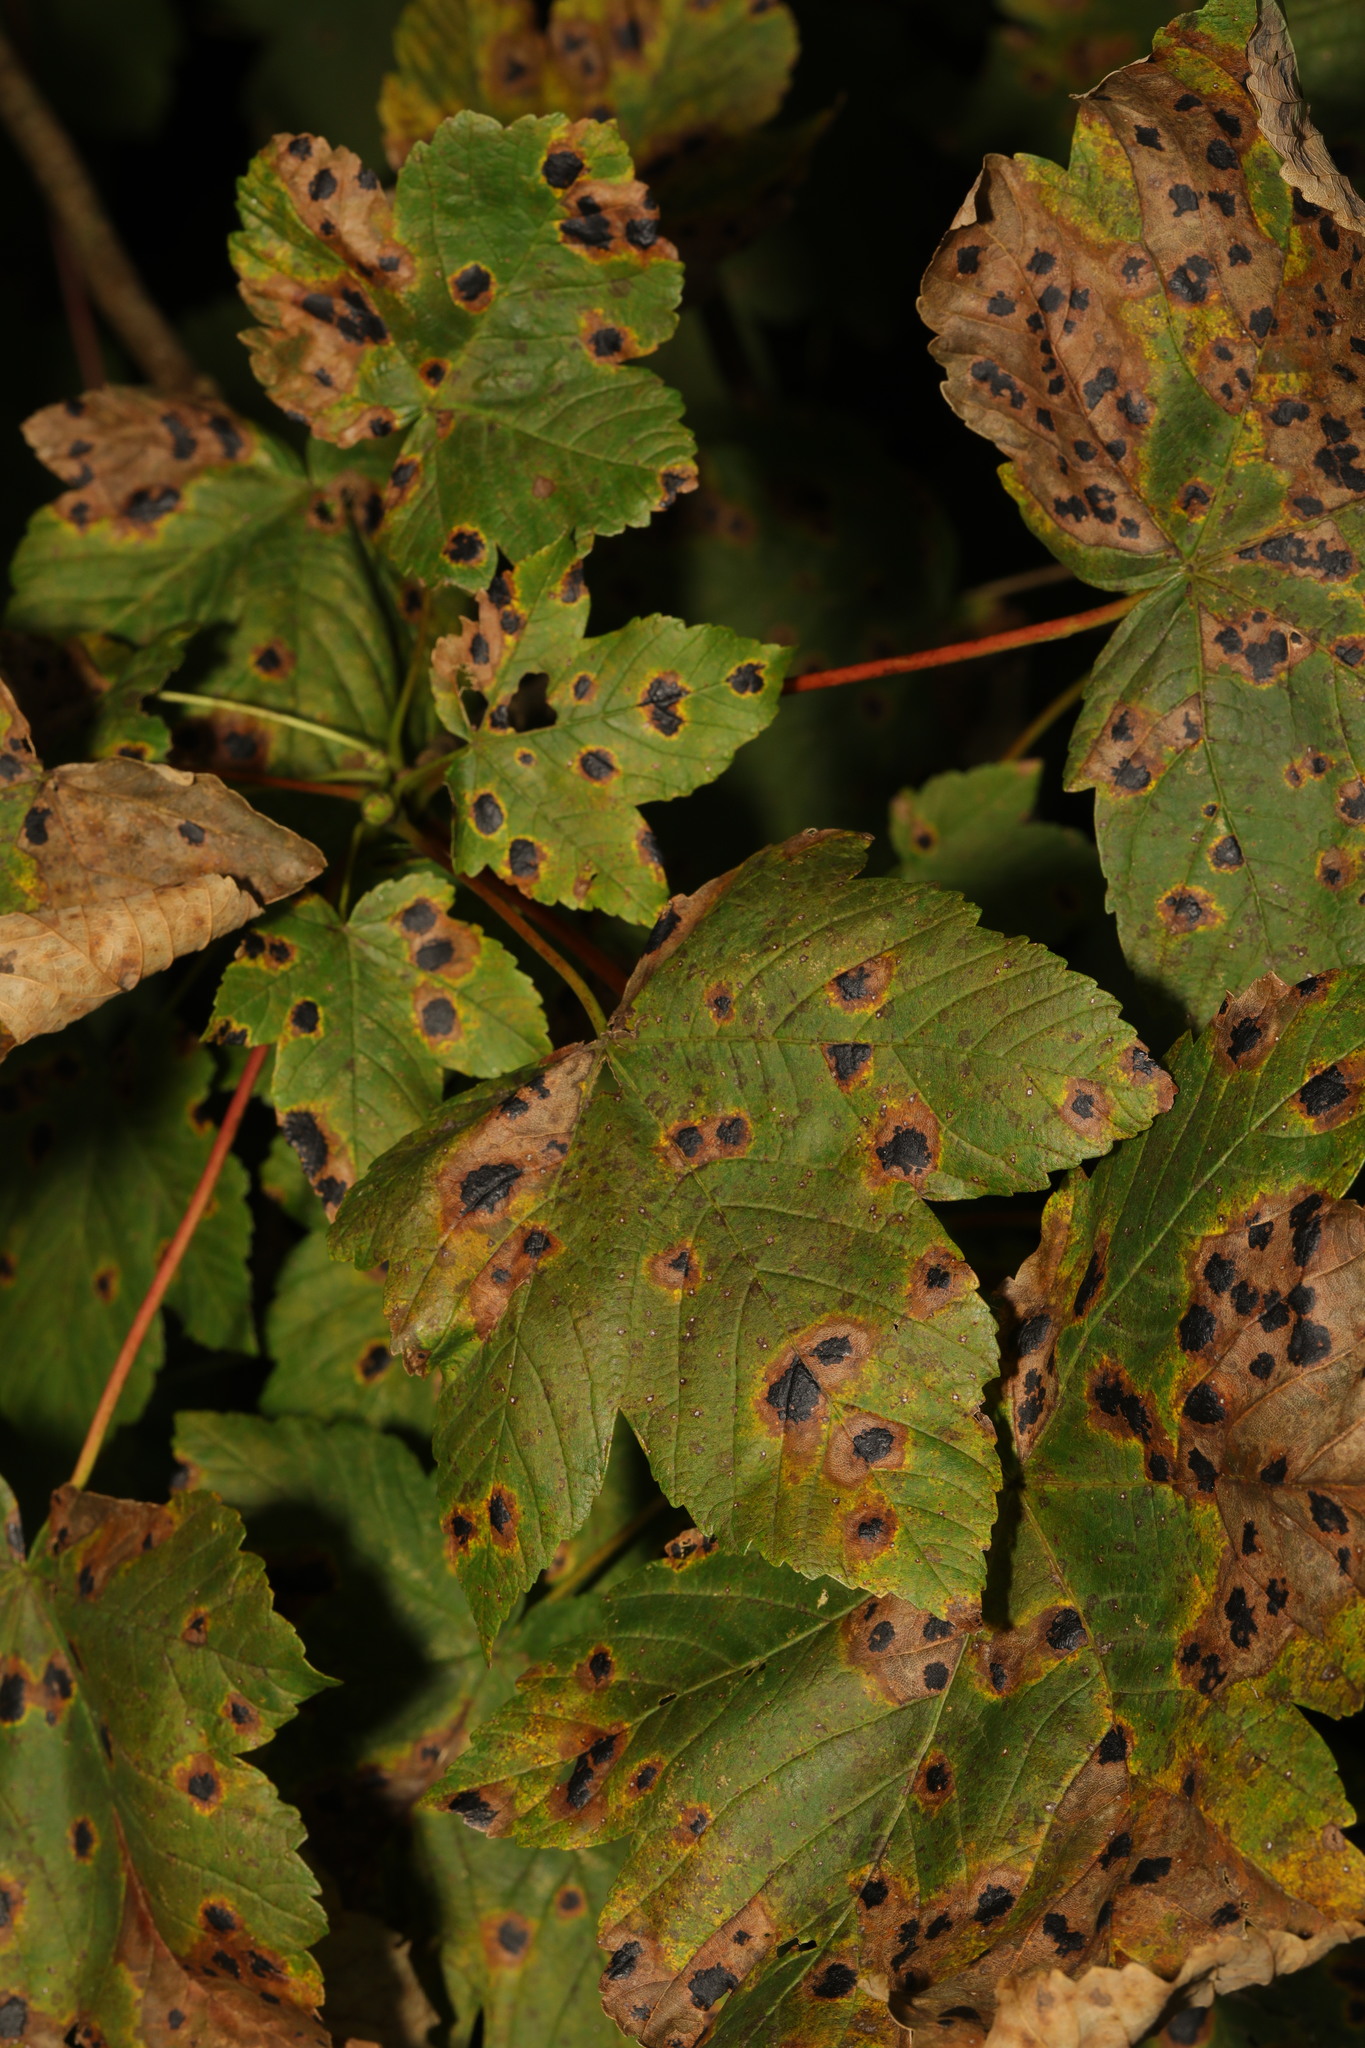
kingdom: Plantae
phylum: Tracheophyta
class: Magnoliopsida
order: Sapindales
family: Sapindaceae
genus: Acer
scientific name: Acer pseudoplatanus
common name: Sycamore
